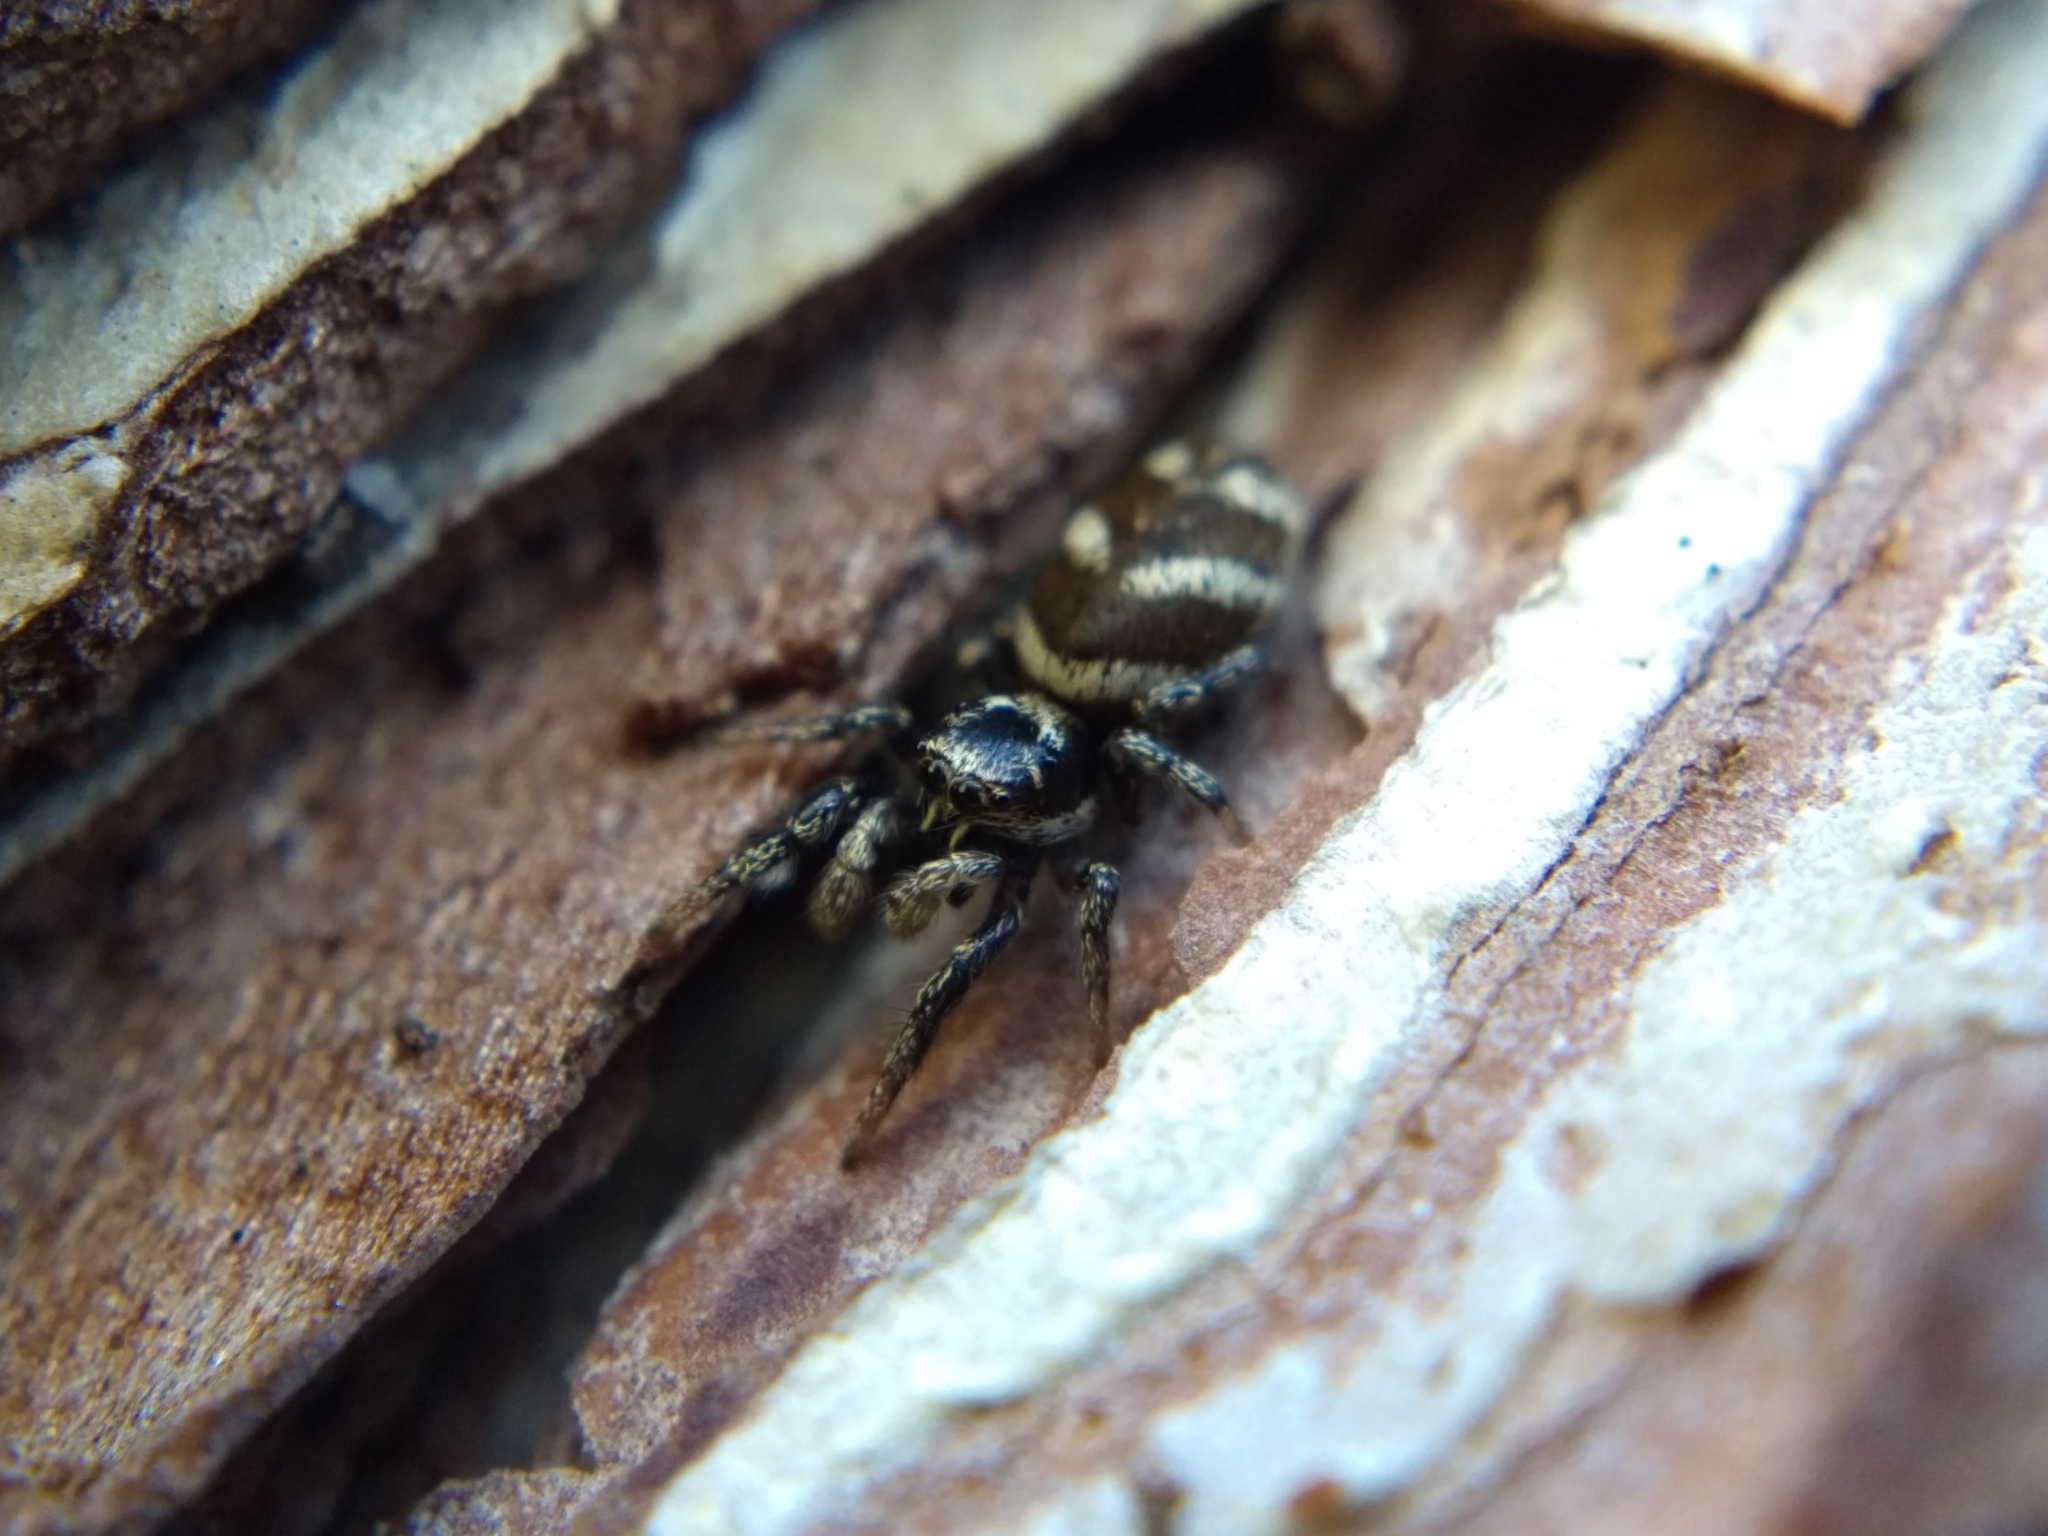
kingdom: Animalia
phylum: Arthropoda
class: Arachnida
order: Araneae
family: Salticidae
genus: Salticus
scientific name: Salticus scenicus
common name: Zebra jumper
